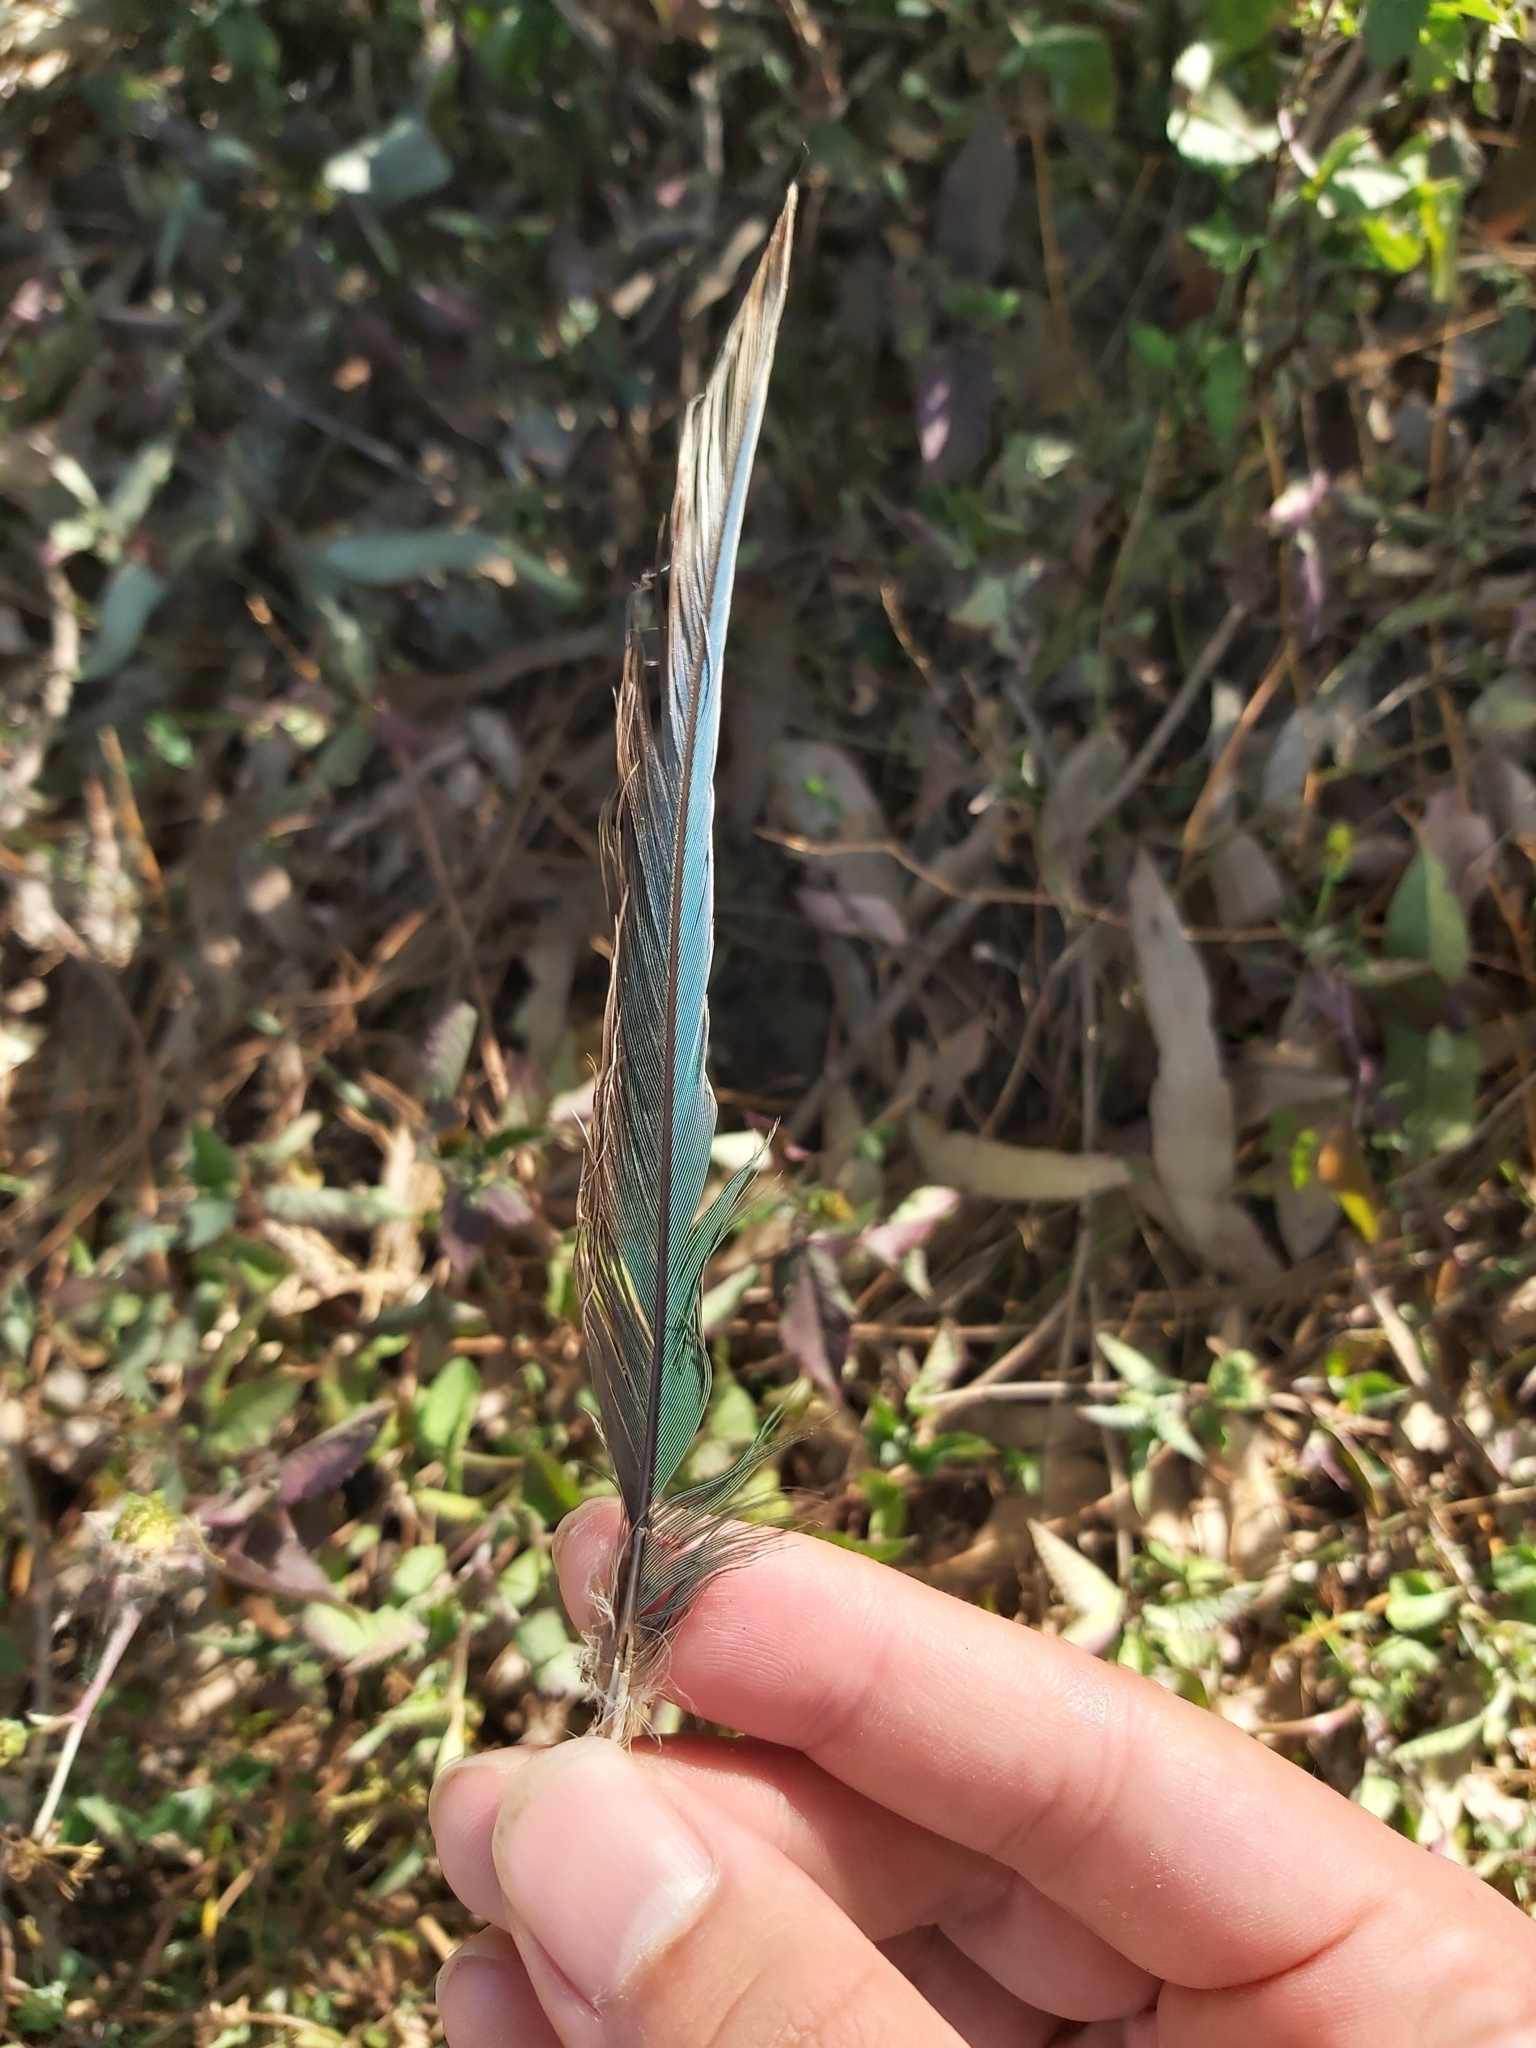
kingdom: Animalia
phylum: Chordata
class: Aves
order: Psittaciformes
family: Psittacidae
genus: Psephotus
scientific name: Psephotus haematonotus
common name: Red-rumped parrot
